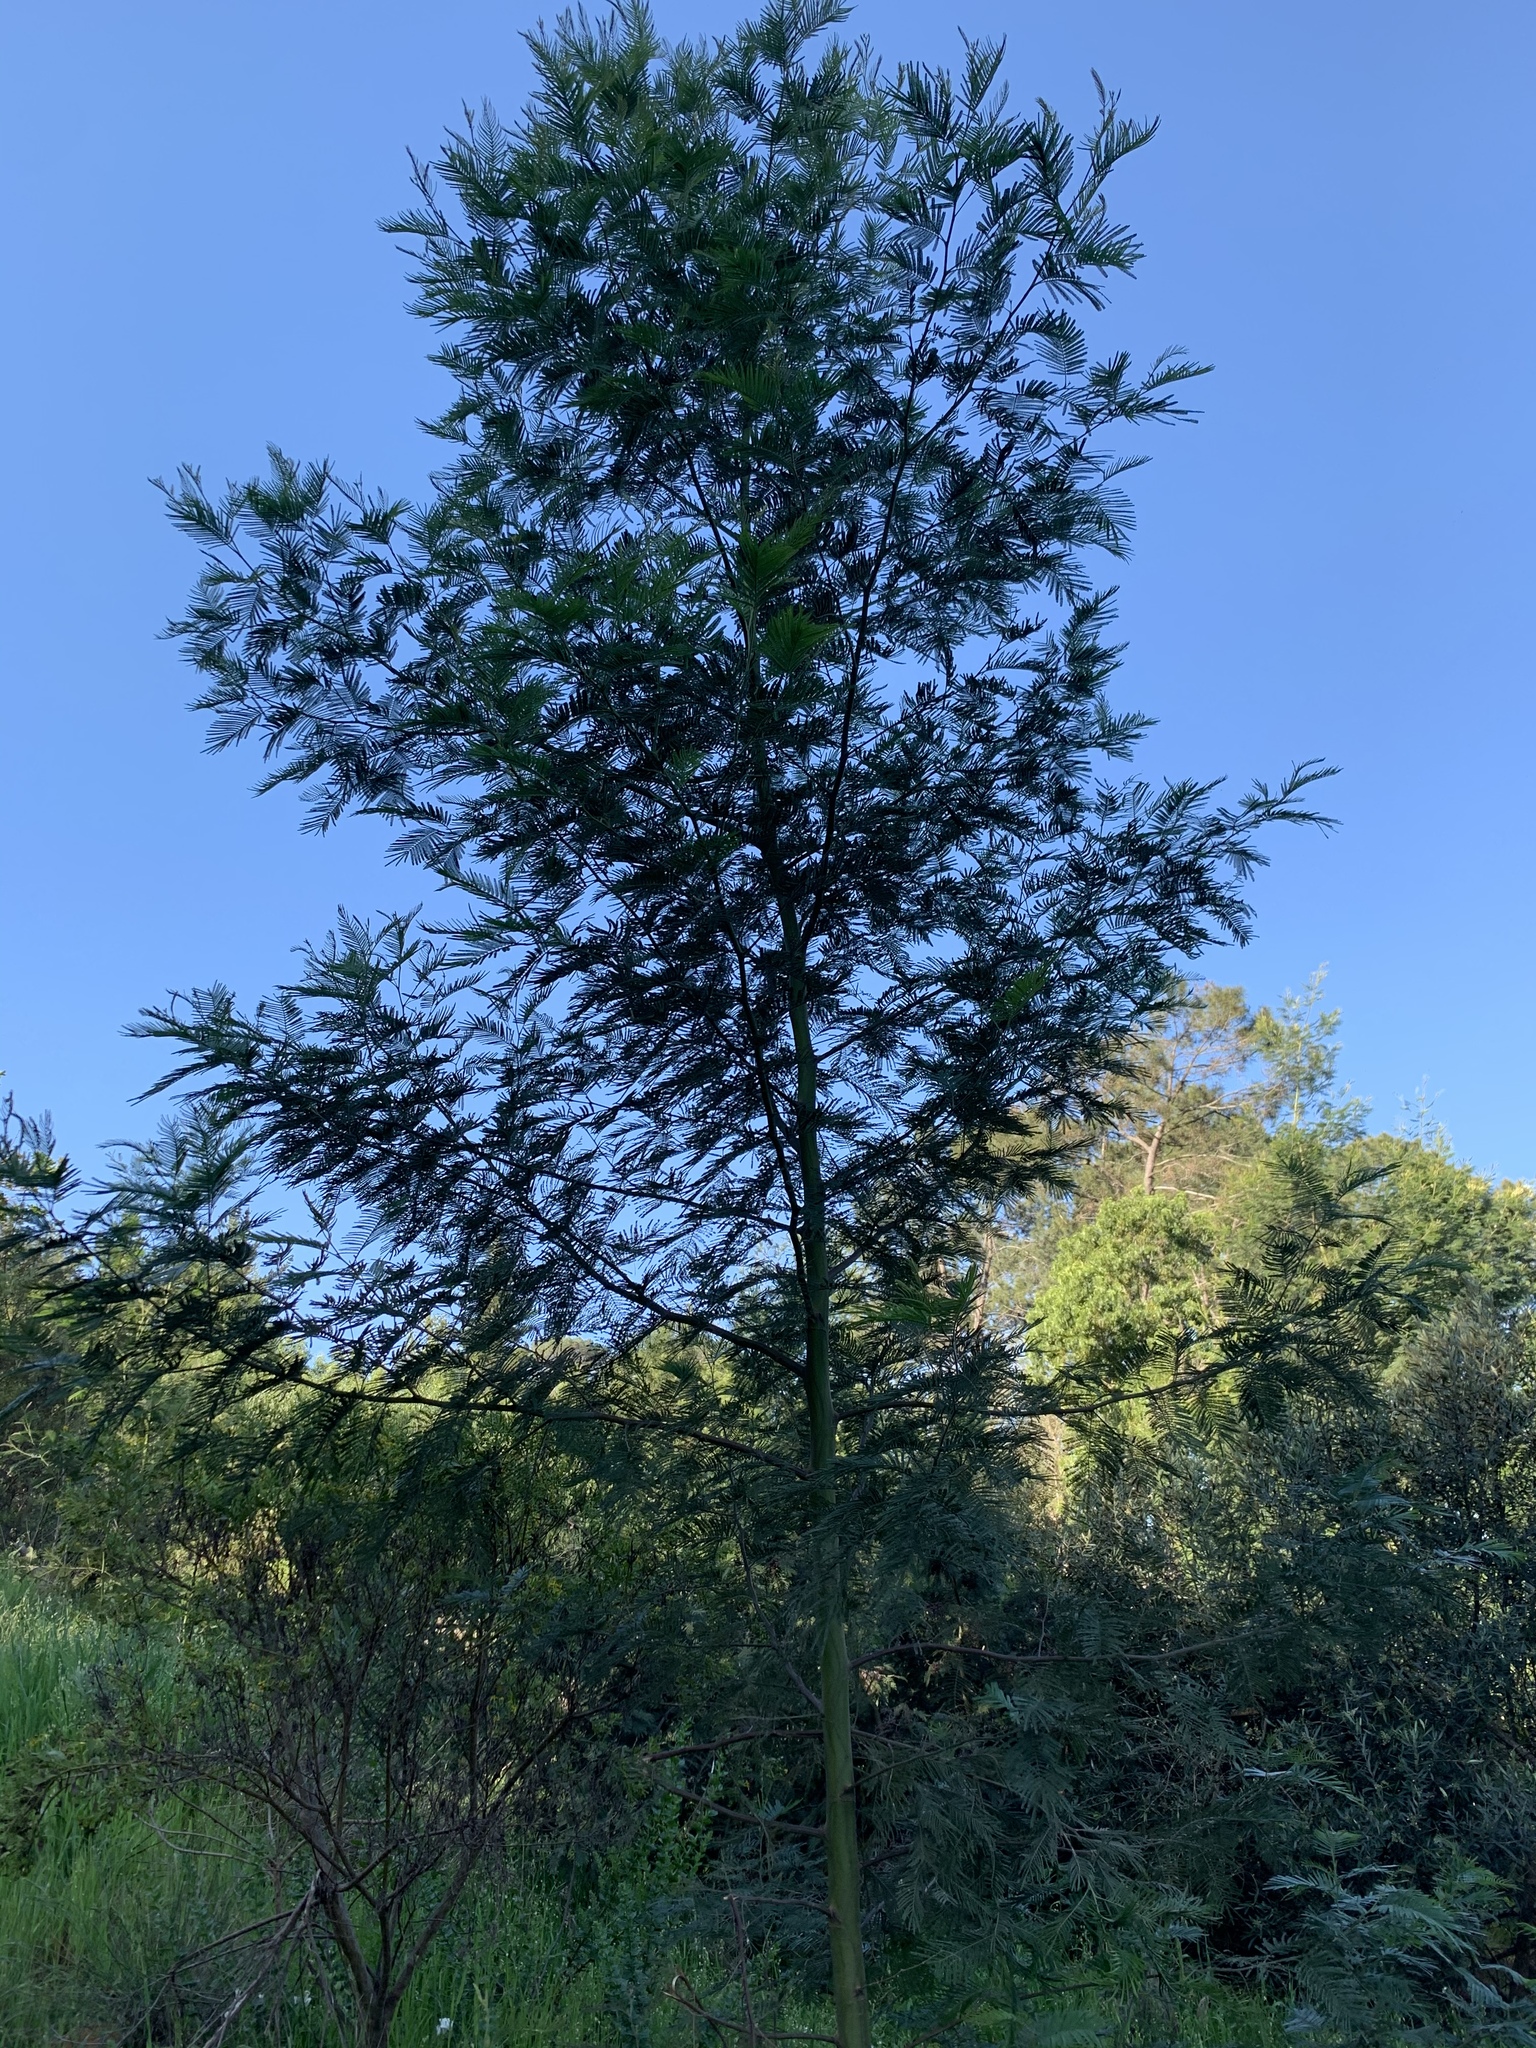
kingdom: Plantae
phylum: Tracheophyta
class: Magnoliopsida
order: Fabales
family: Fabaceae
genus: Acacia
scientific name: Acacia mearnsii
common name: Black wattle
